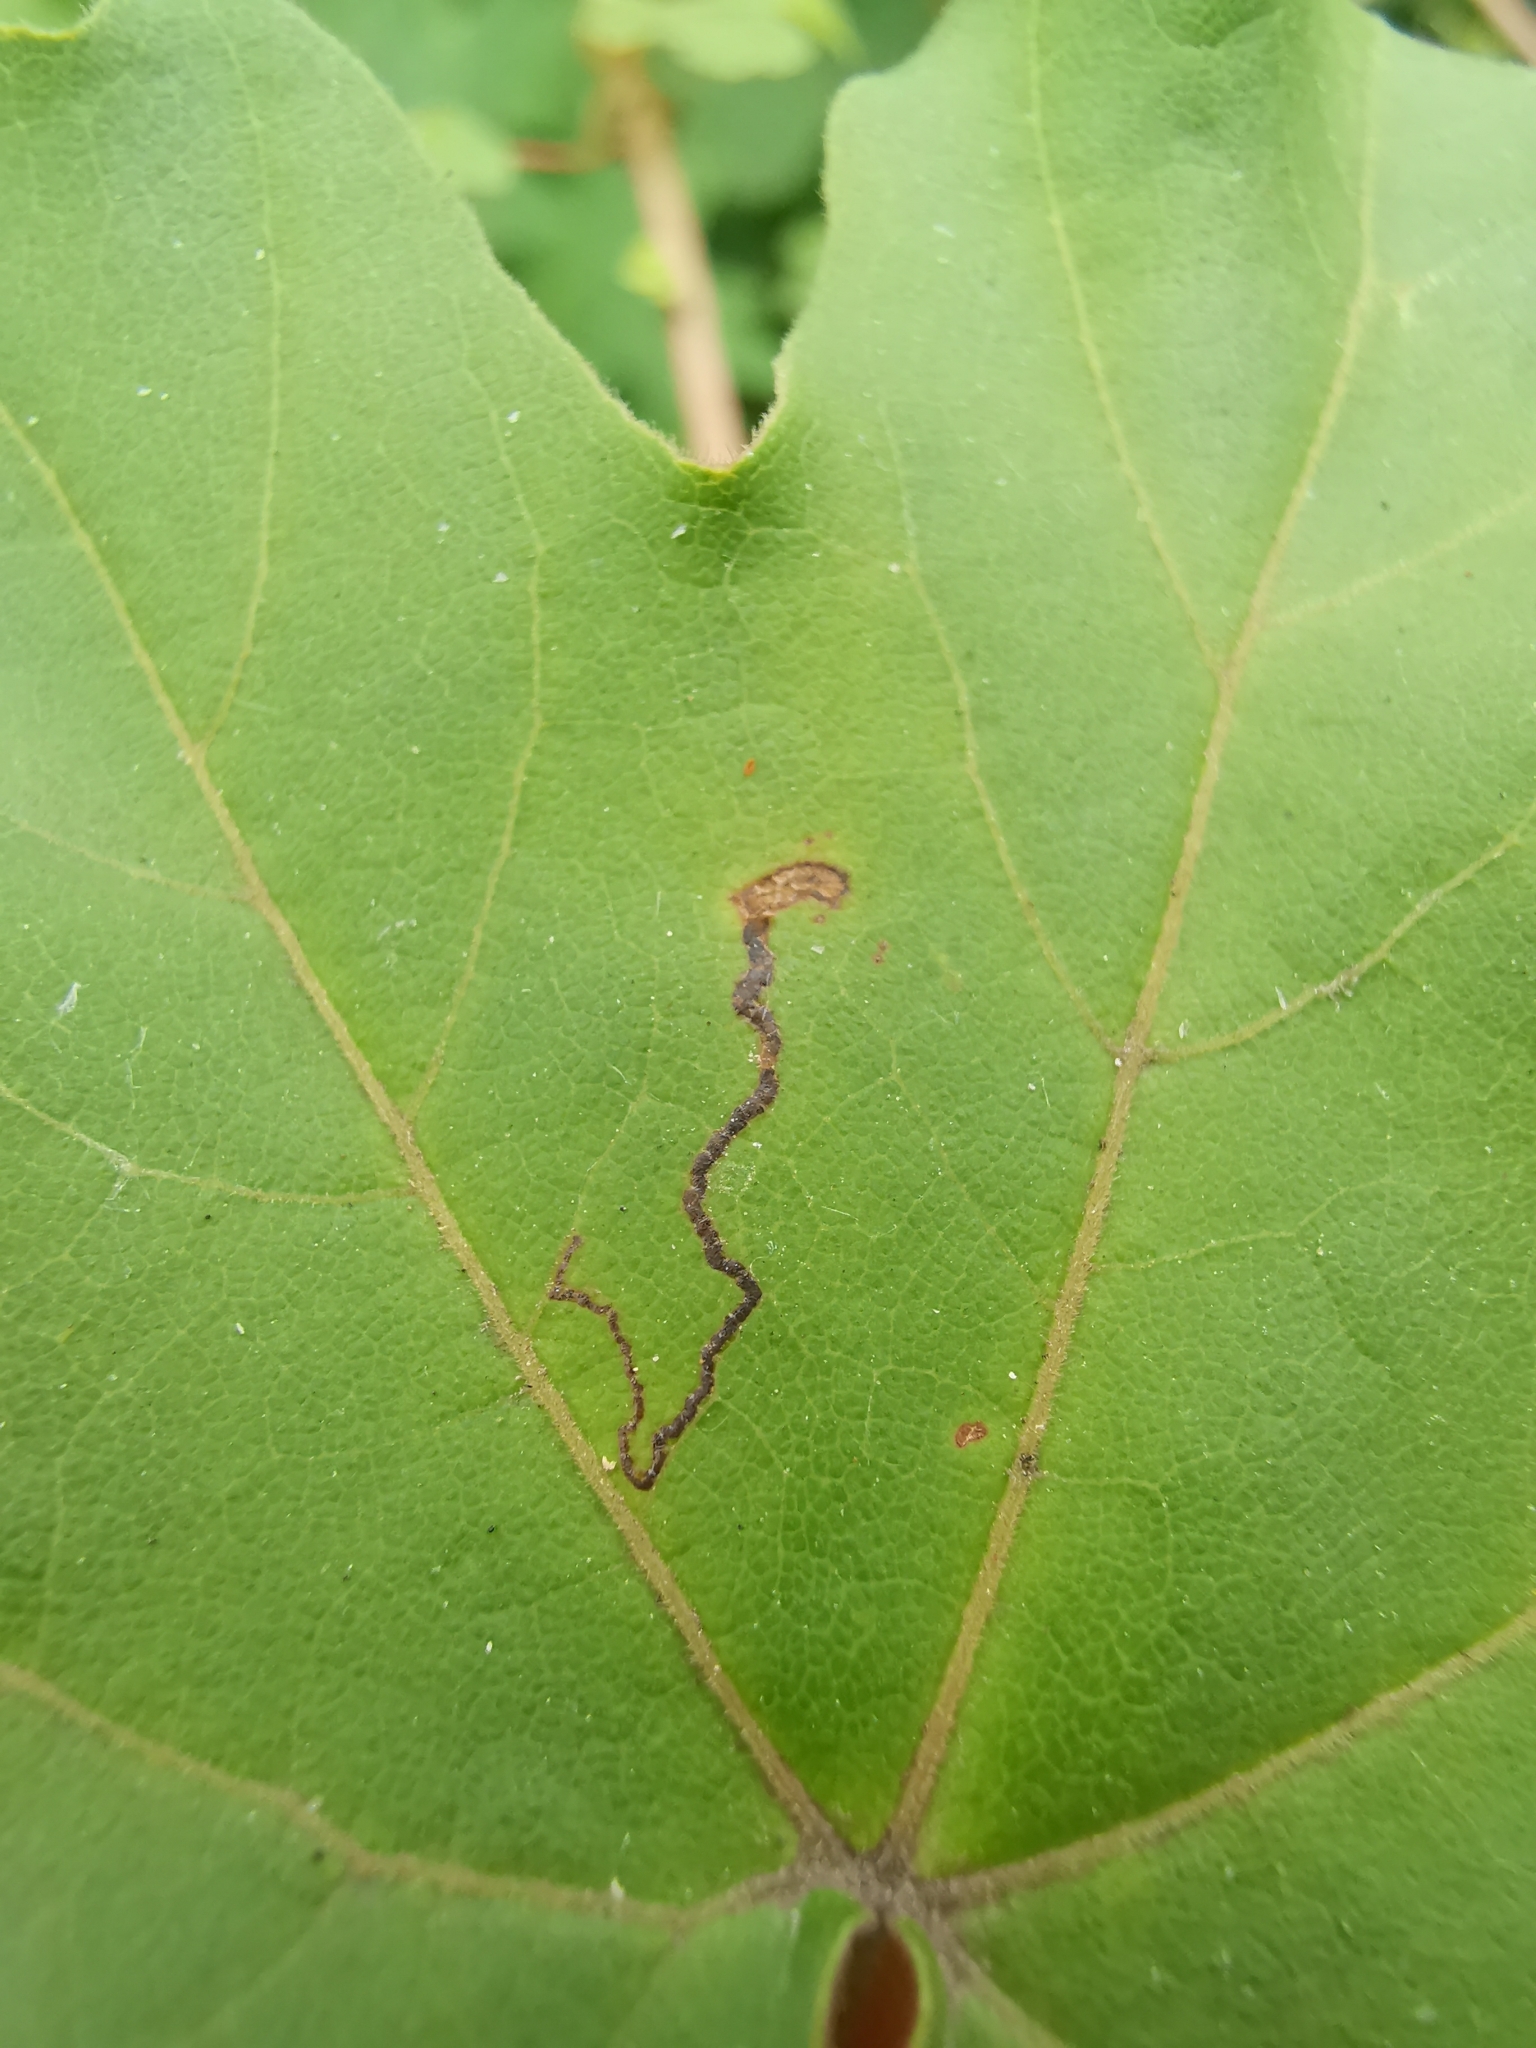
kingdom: Animalia
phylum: Arthropoda
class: Insecta
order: Lepidoptera
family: Nepticulidae
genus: Stigmella
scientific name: Stigmella aceris
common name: Scarce maple pigmy
